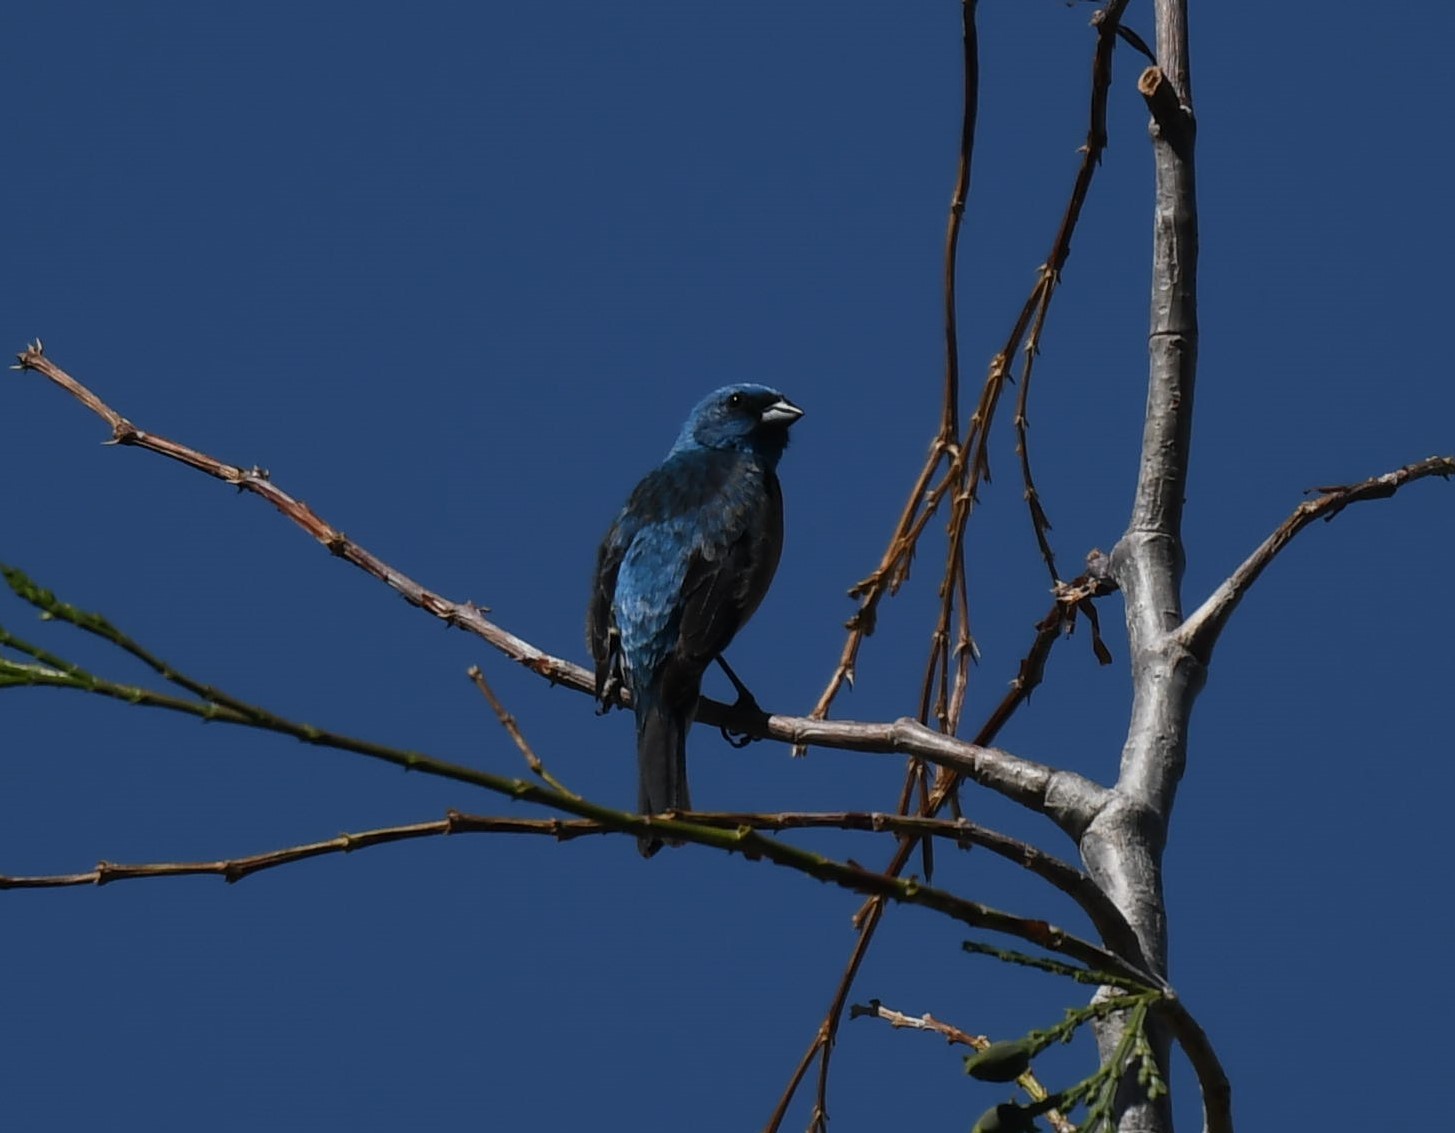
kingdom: Animalia
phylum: Chordata
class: Aves
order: Passeriformes
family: Cardinalidae
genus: Passerina
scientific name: Passerina cyanea
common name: Indigo bunting
